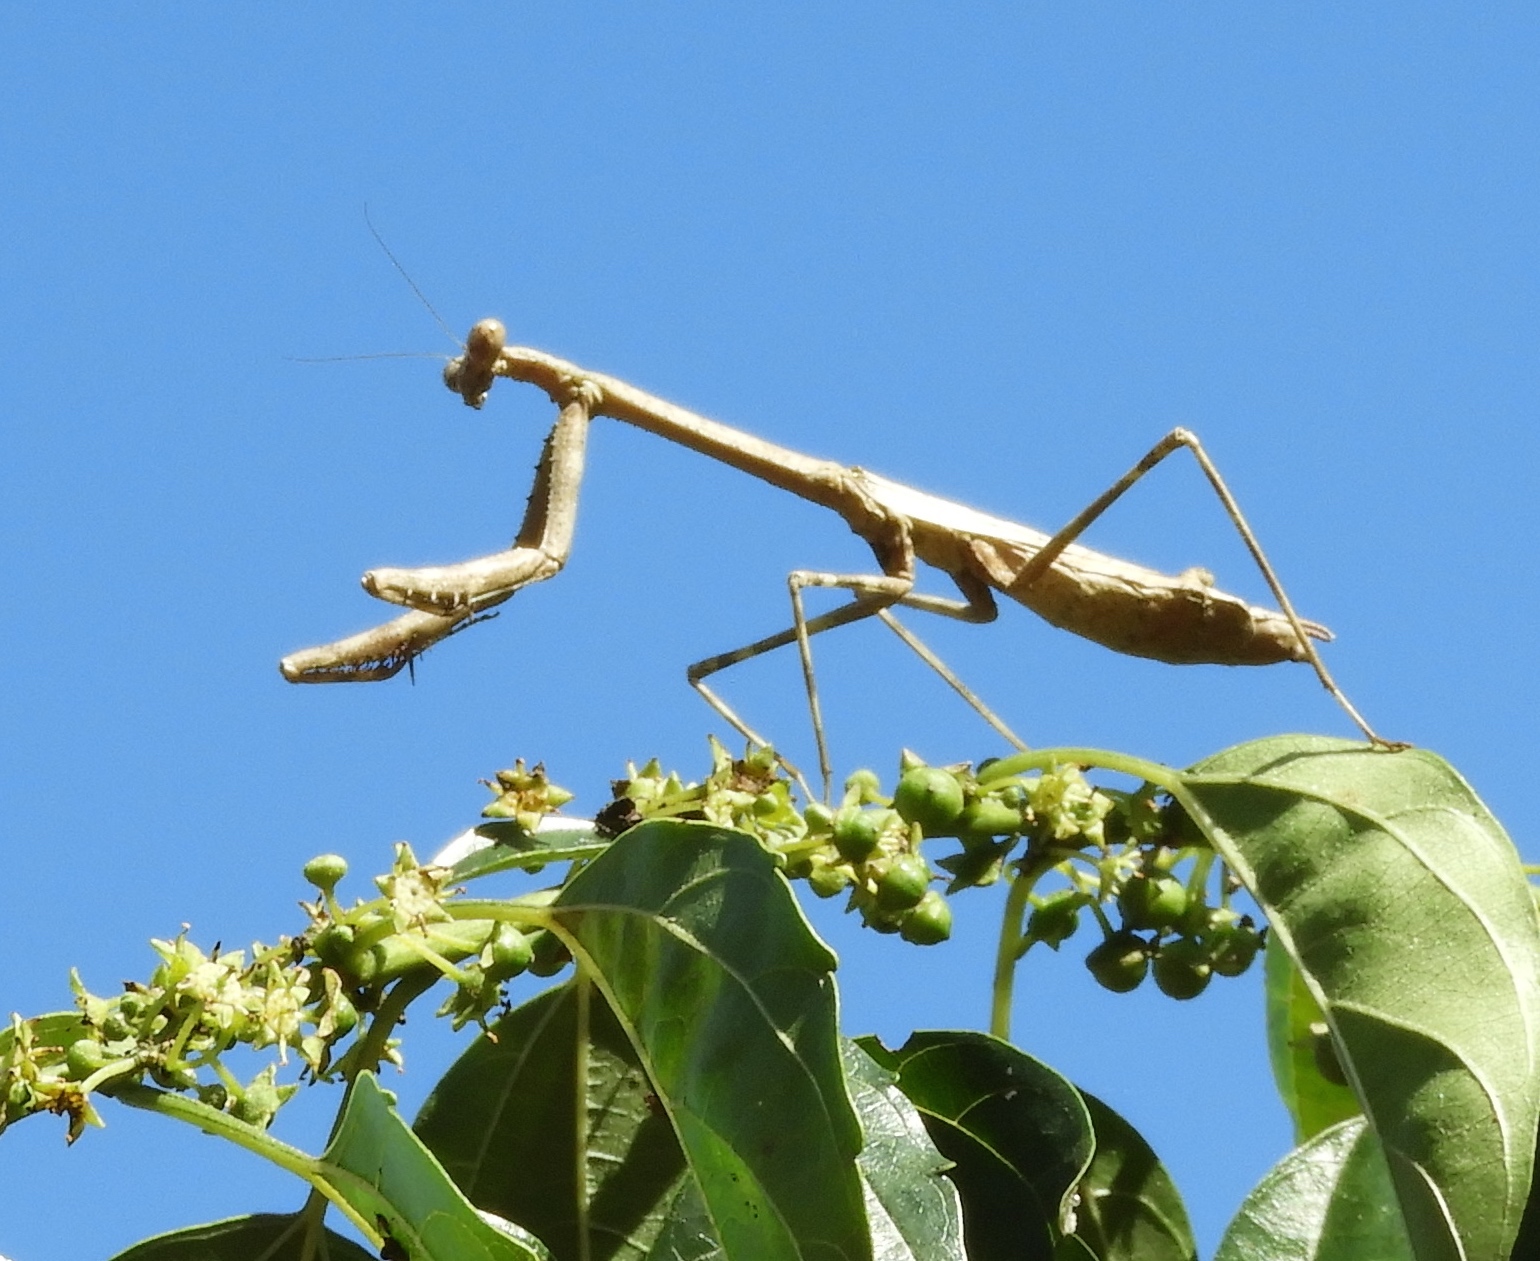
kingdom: Animalia
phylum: Arthropoda
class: Insecta
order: Mantodea
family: Mantidae
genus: Stagmomantis
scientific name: Stagmomantis
